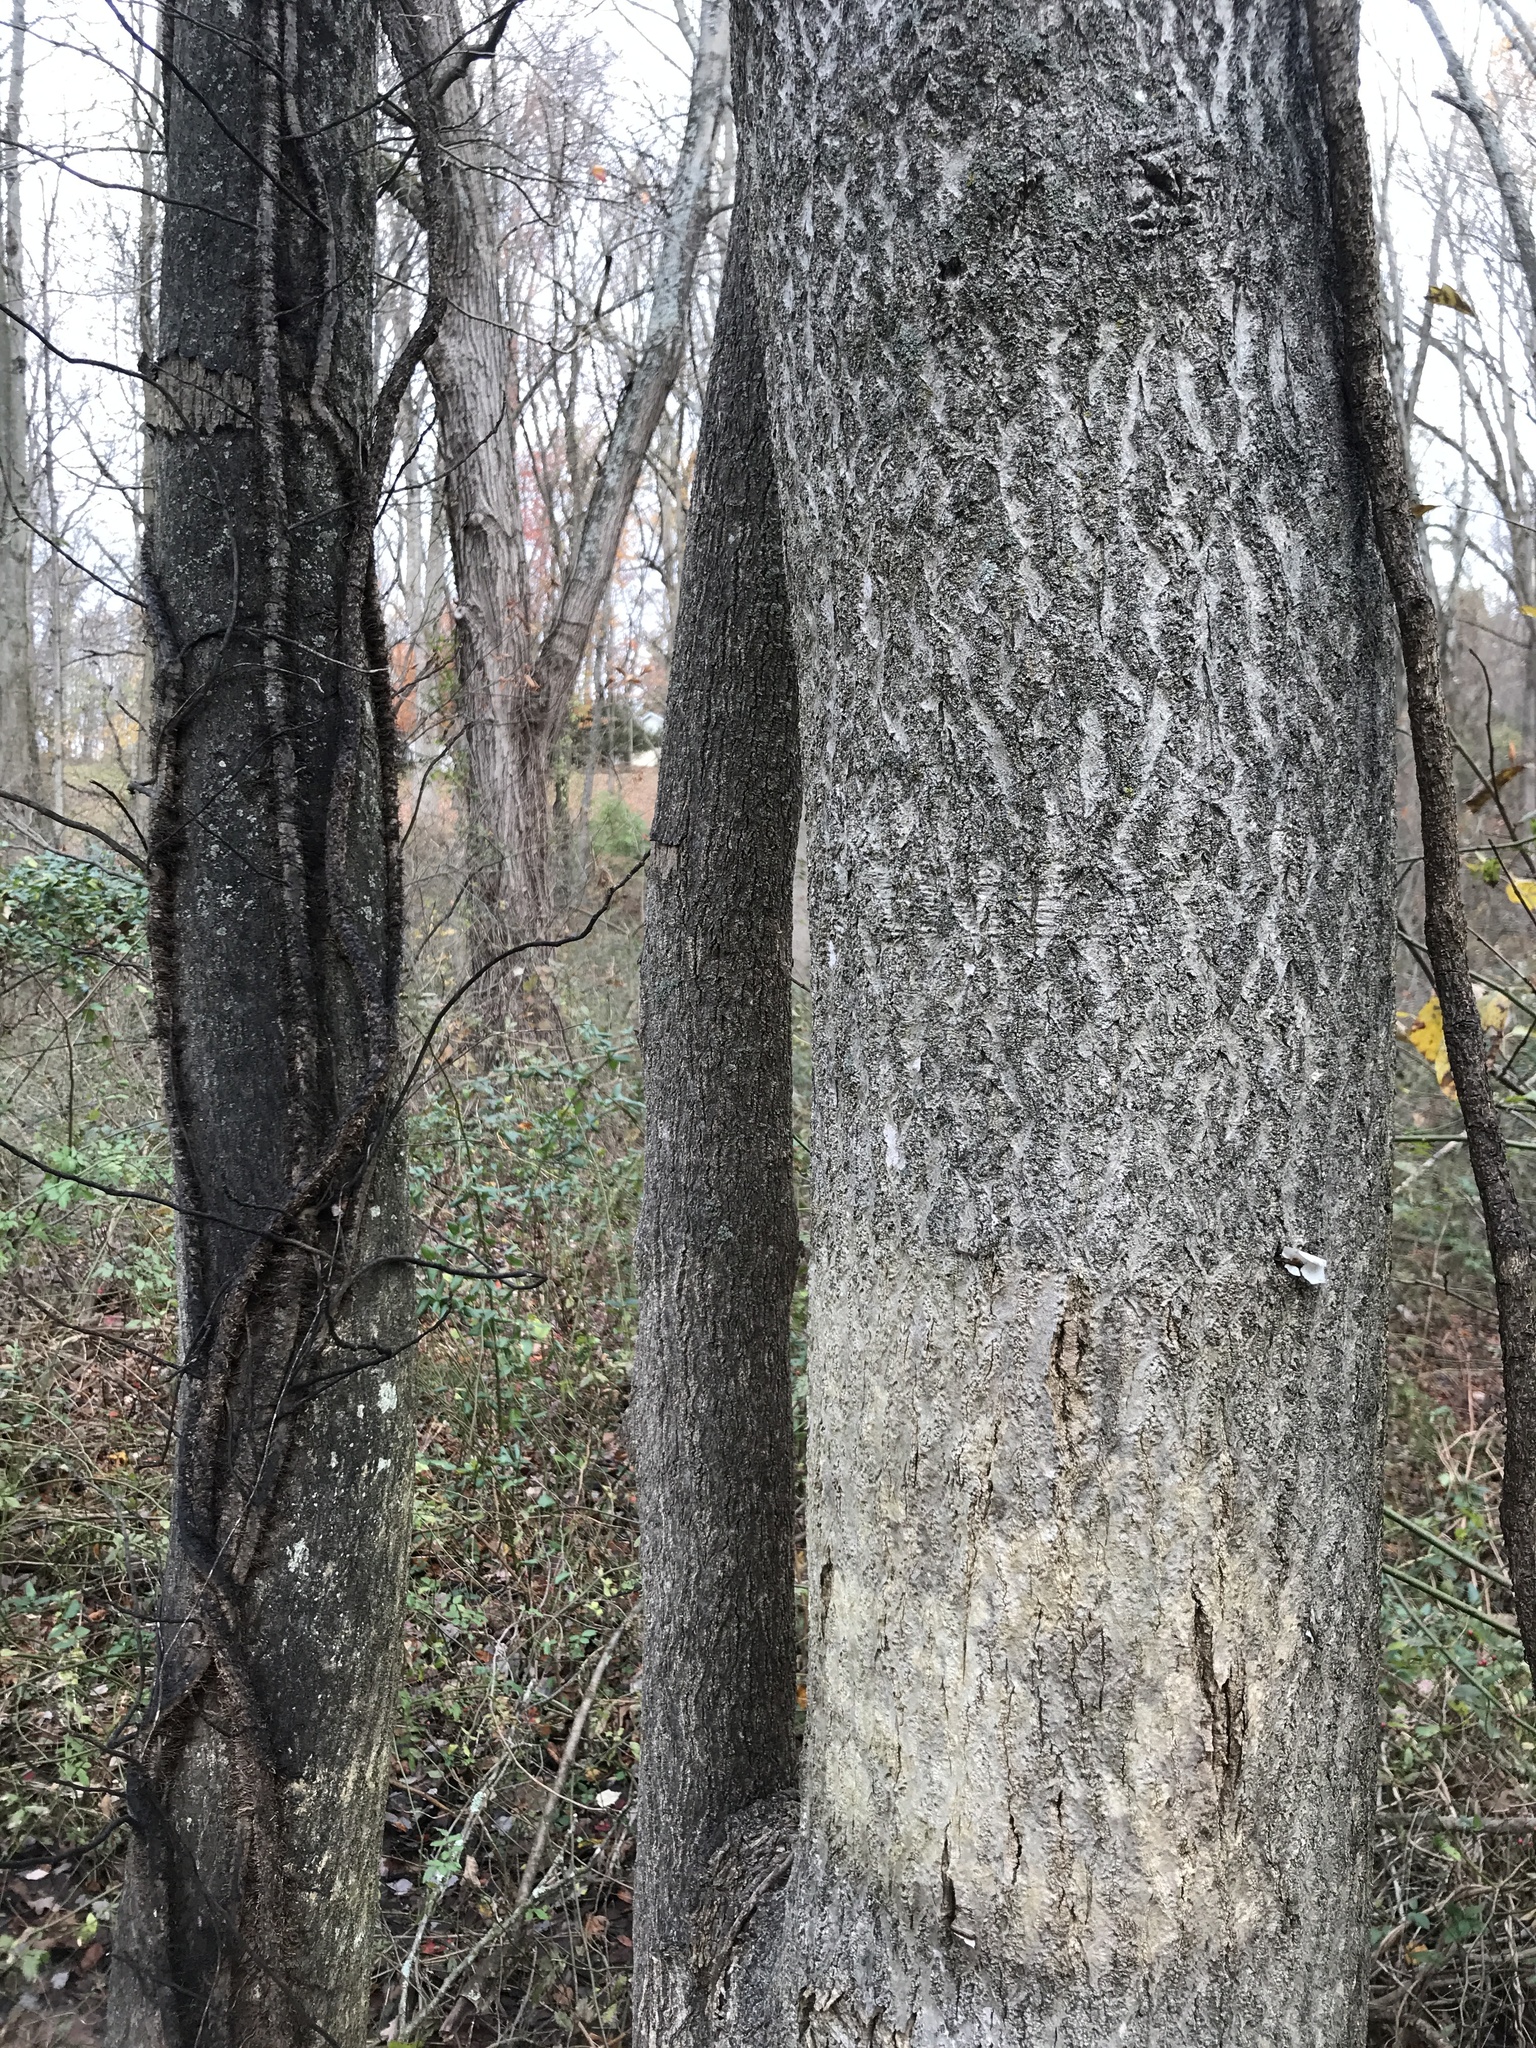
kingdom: Plantae
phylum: Tracheophyta
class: Magnoliopsida
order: Sapindales
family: Simaroubaceae
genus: Ailanthus
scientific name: Ailanthus altissima
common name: Tree-of-heaven
